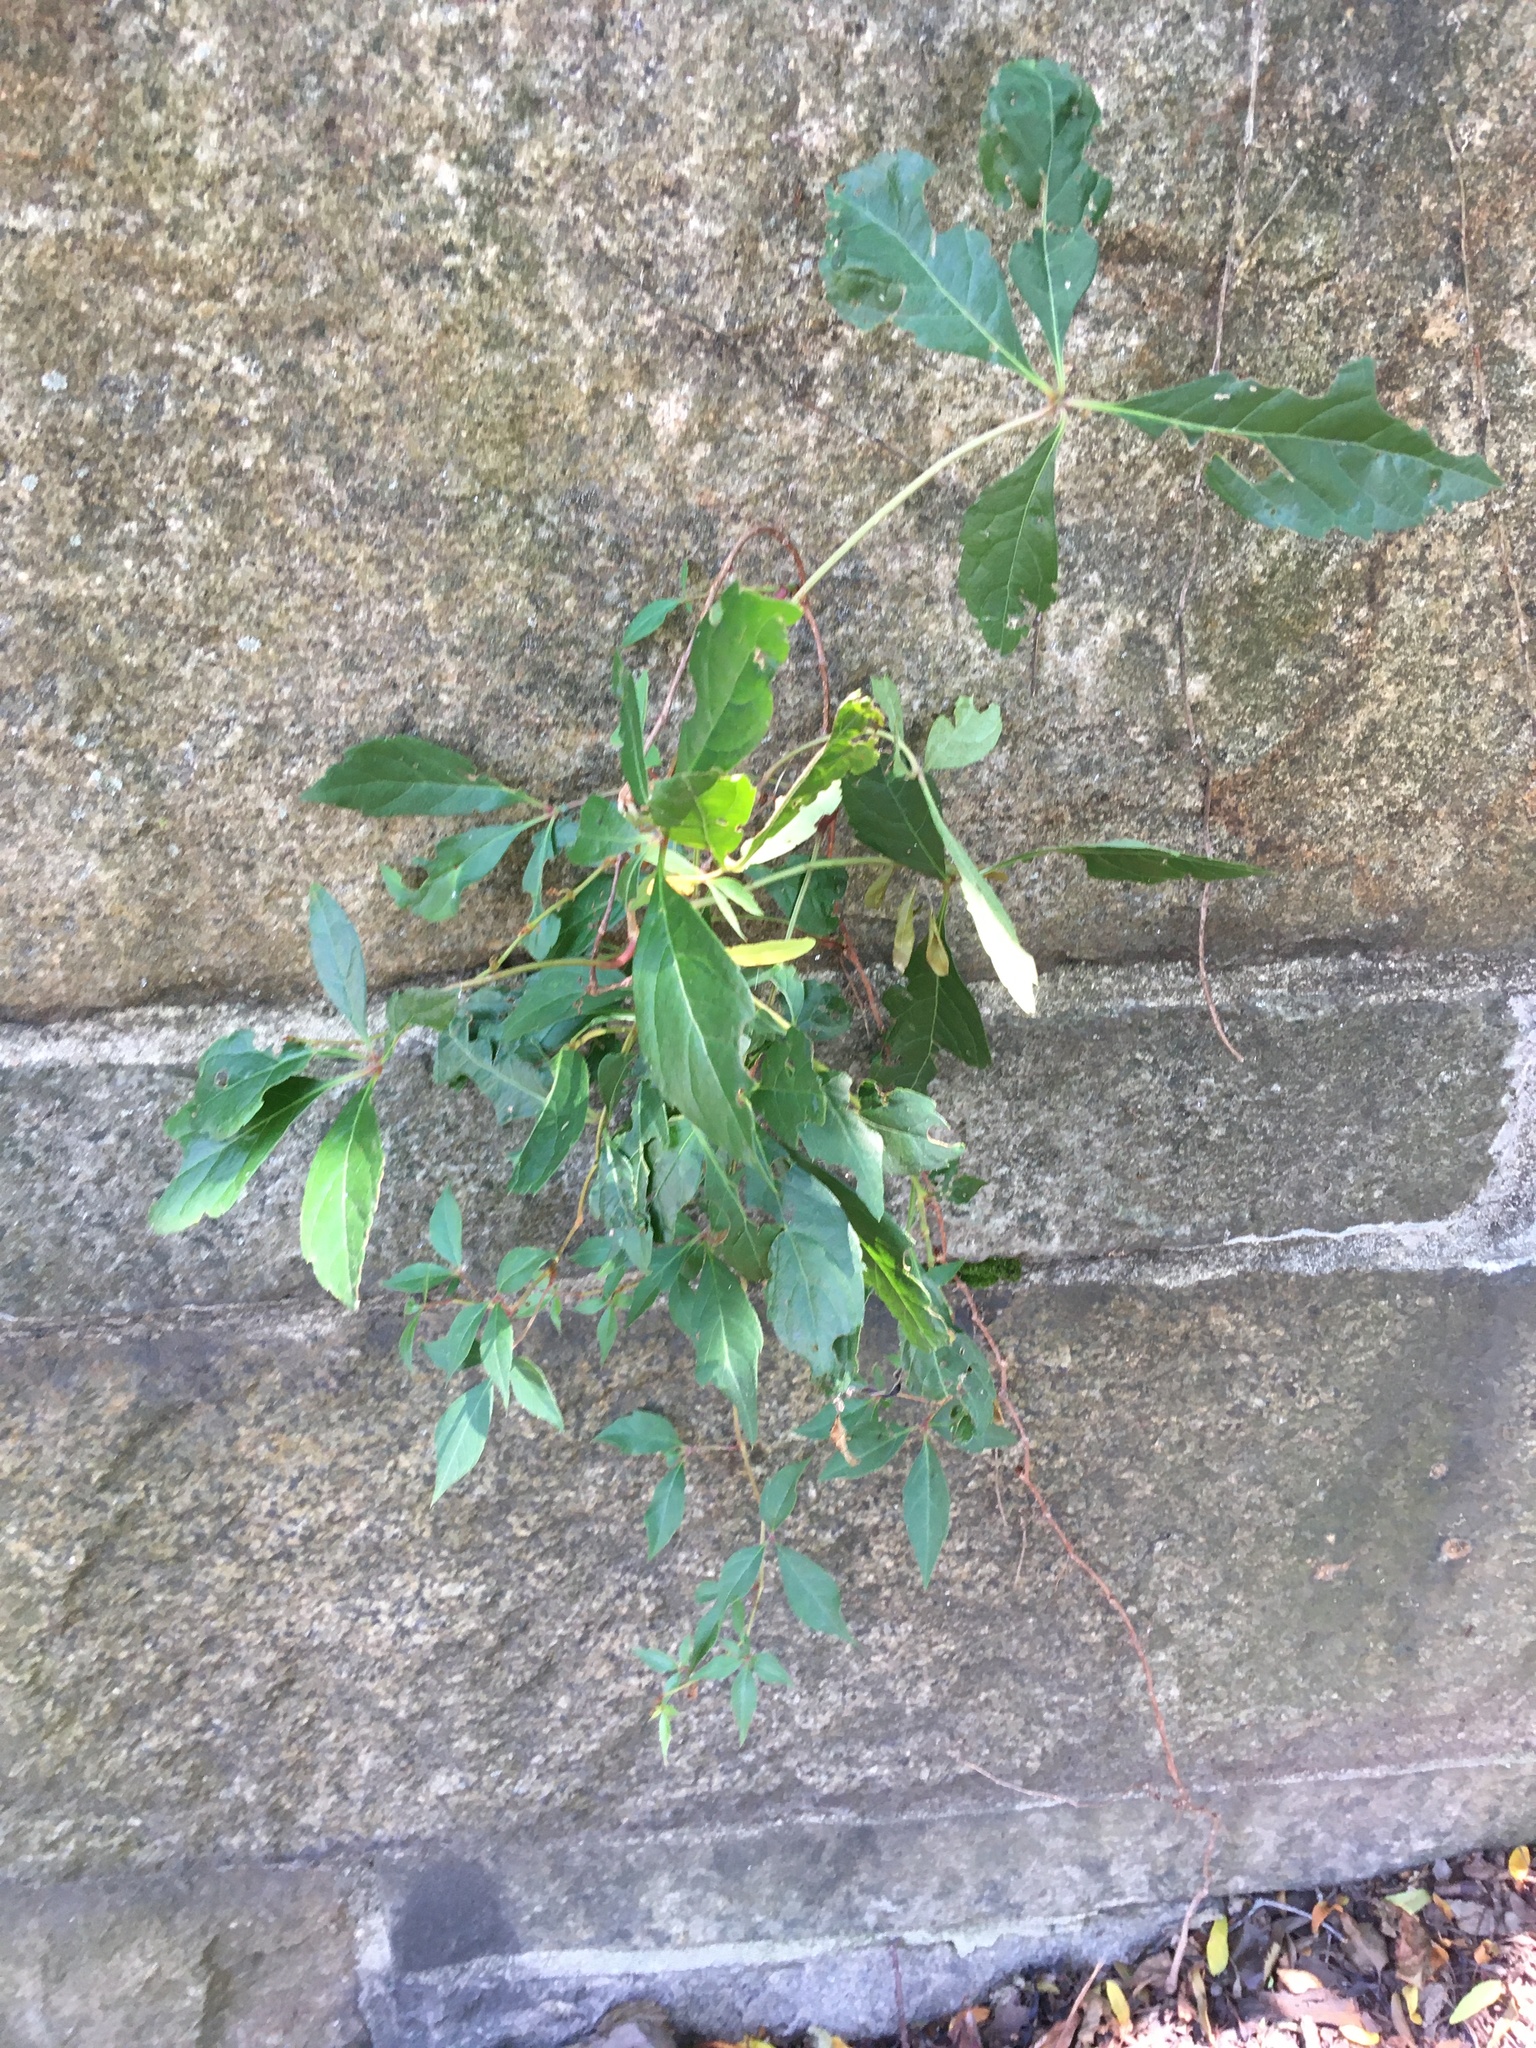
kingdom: Plantae
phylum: Tracheophyta
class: Magnoliopsida
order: Vitales
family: Vitaceae
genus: Parthenocissus
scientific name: Parthenocissus quinquefolia
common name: Virginia-creeper
